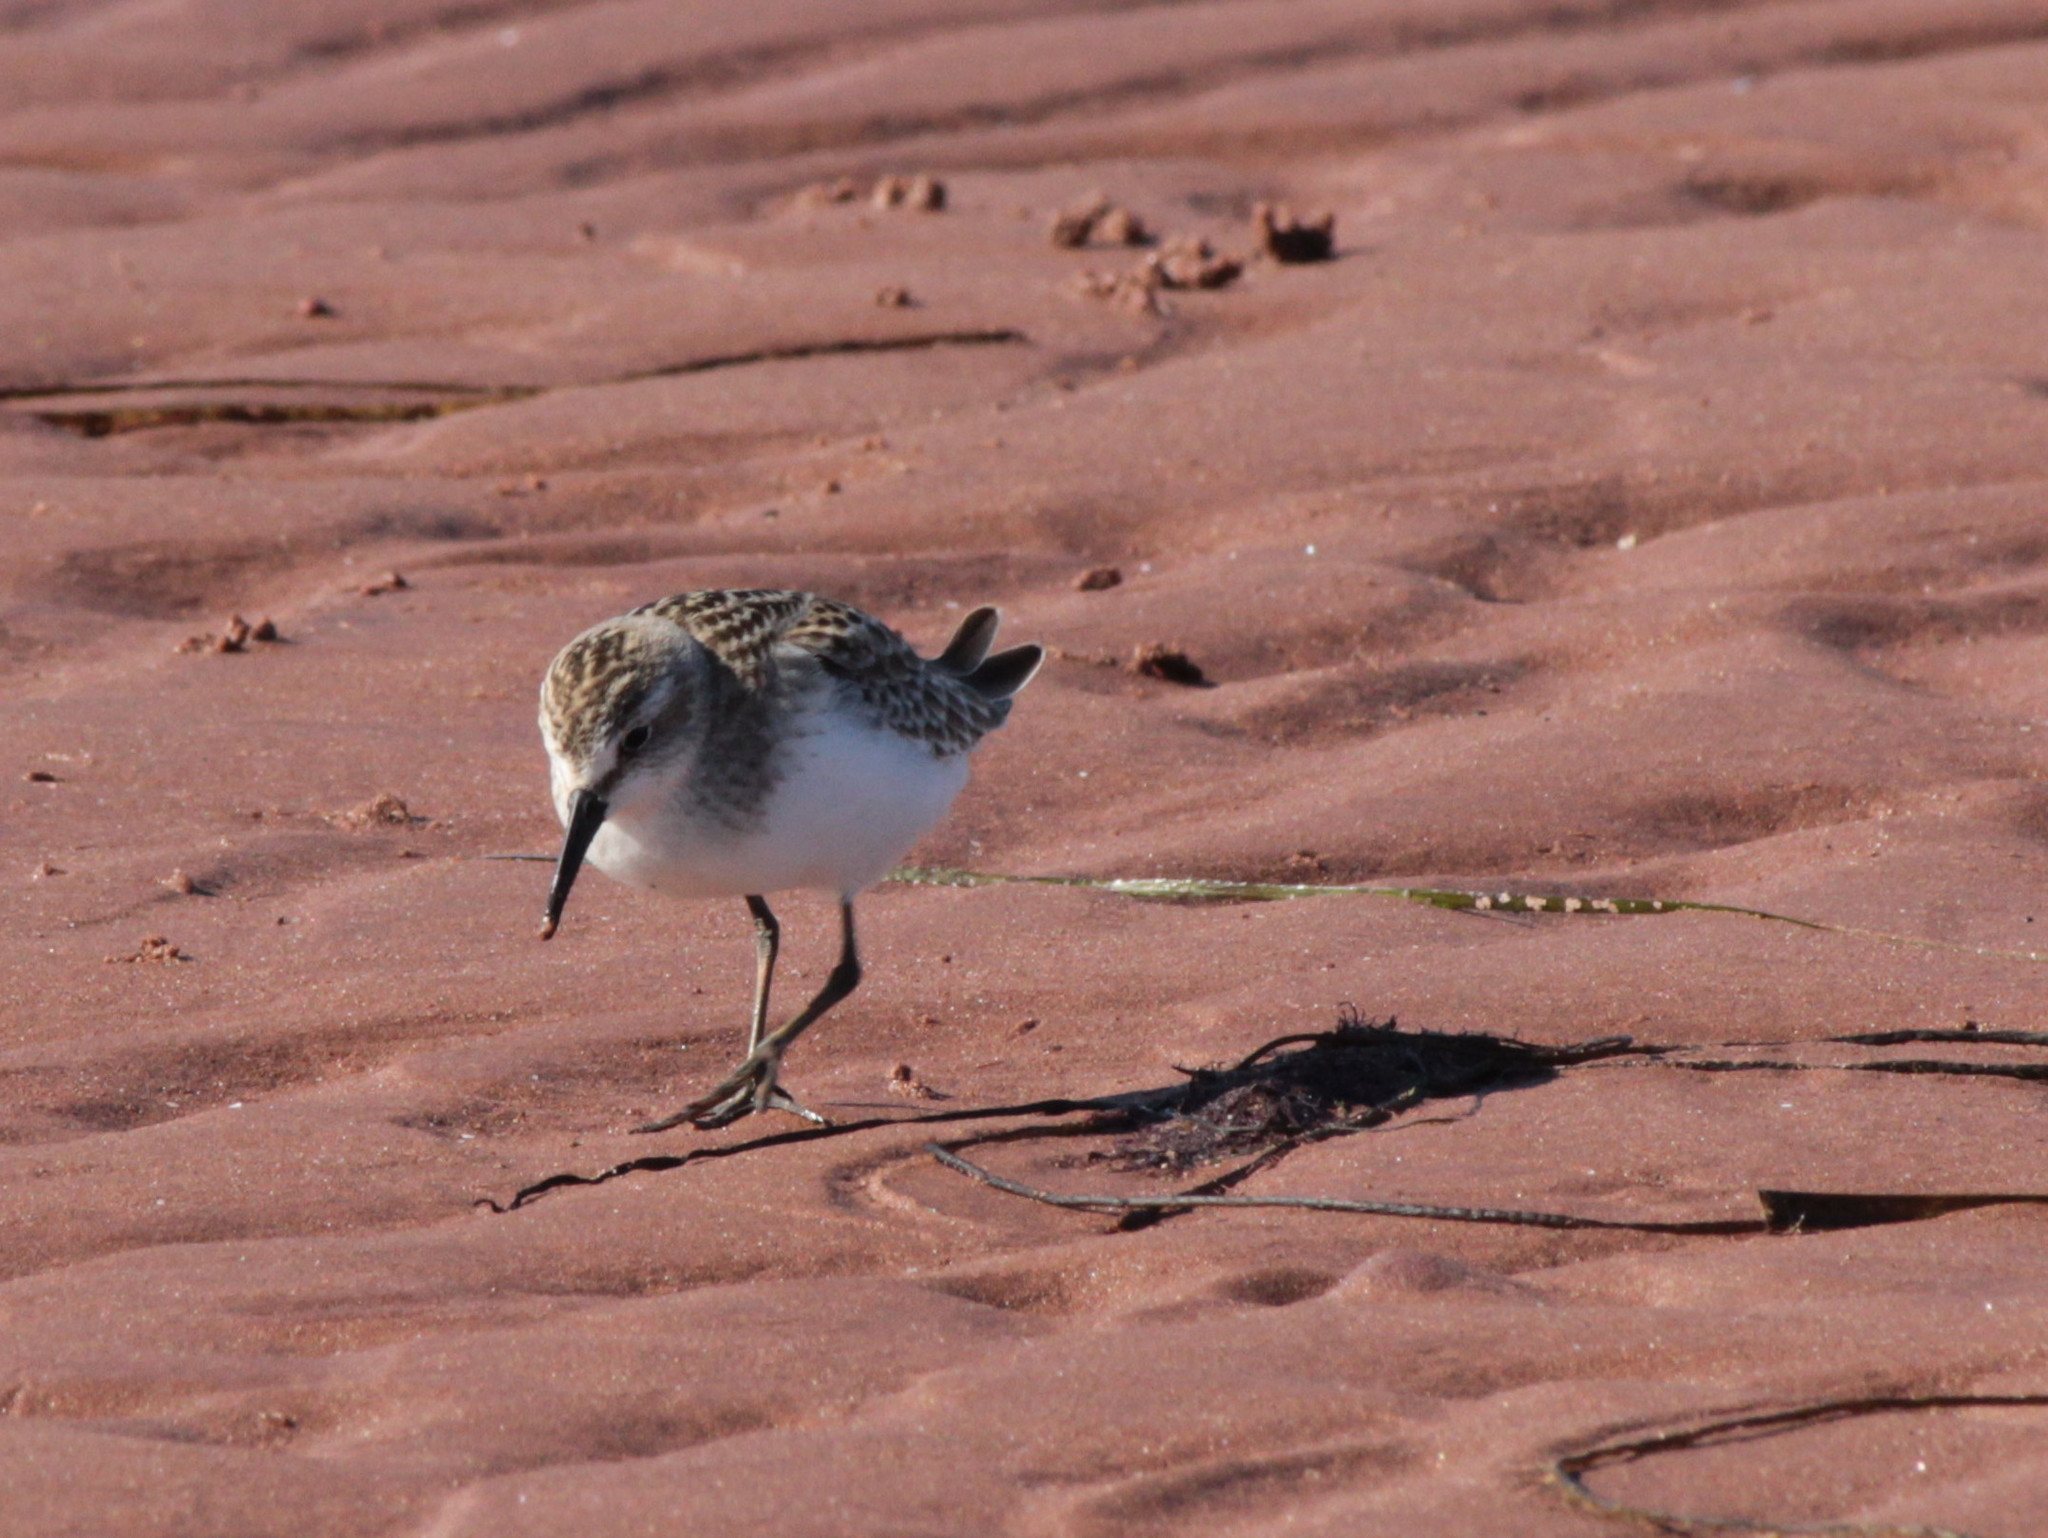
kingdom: Animalia
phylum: Chordata
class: Aves
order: Charadriiformes
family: Scolopacidae
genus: Calidris
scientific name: Calidris pusilla
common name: Semipalmated sandpiper
